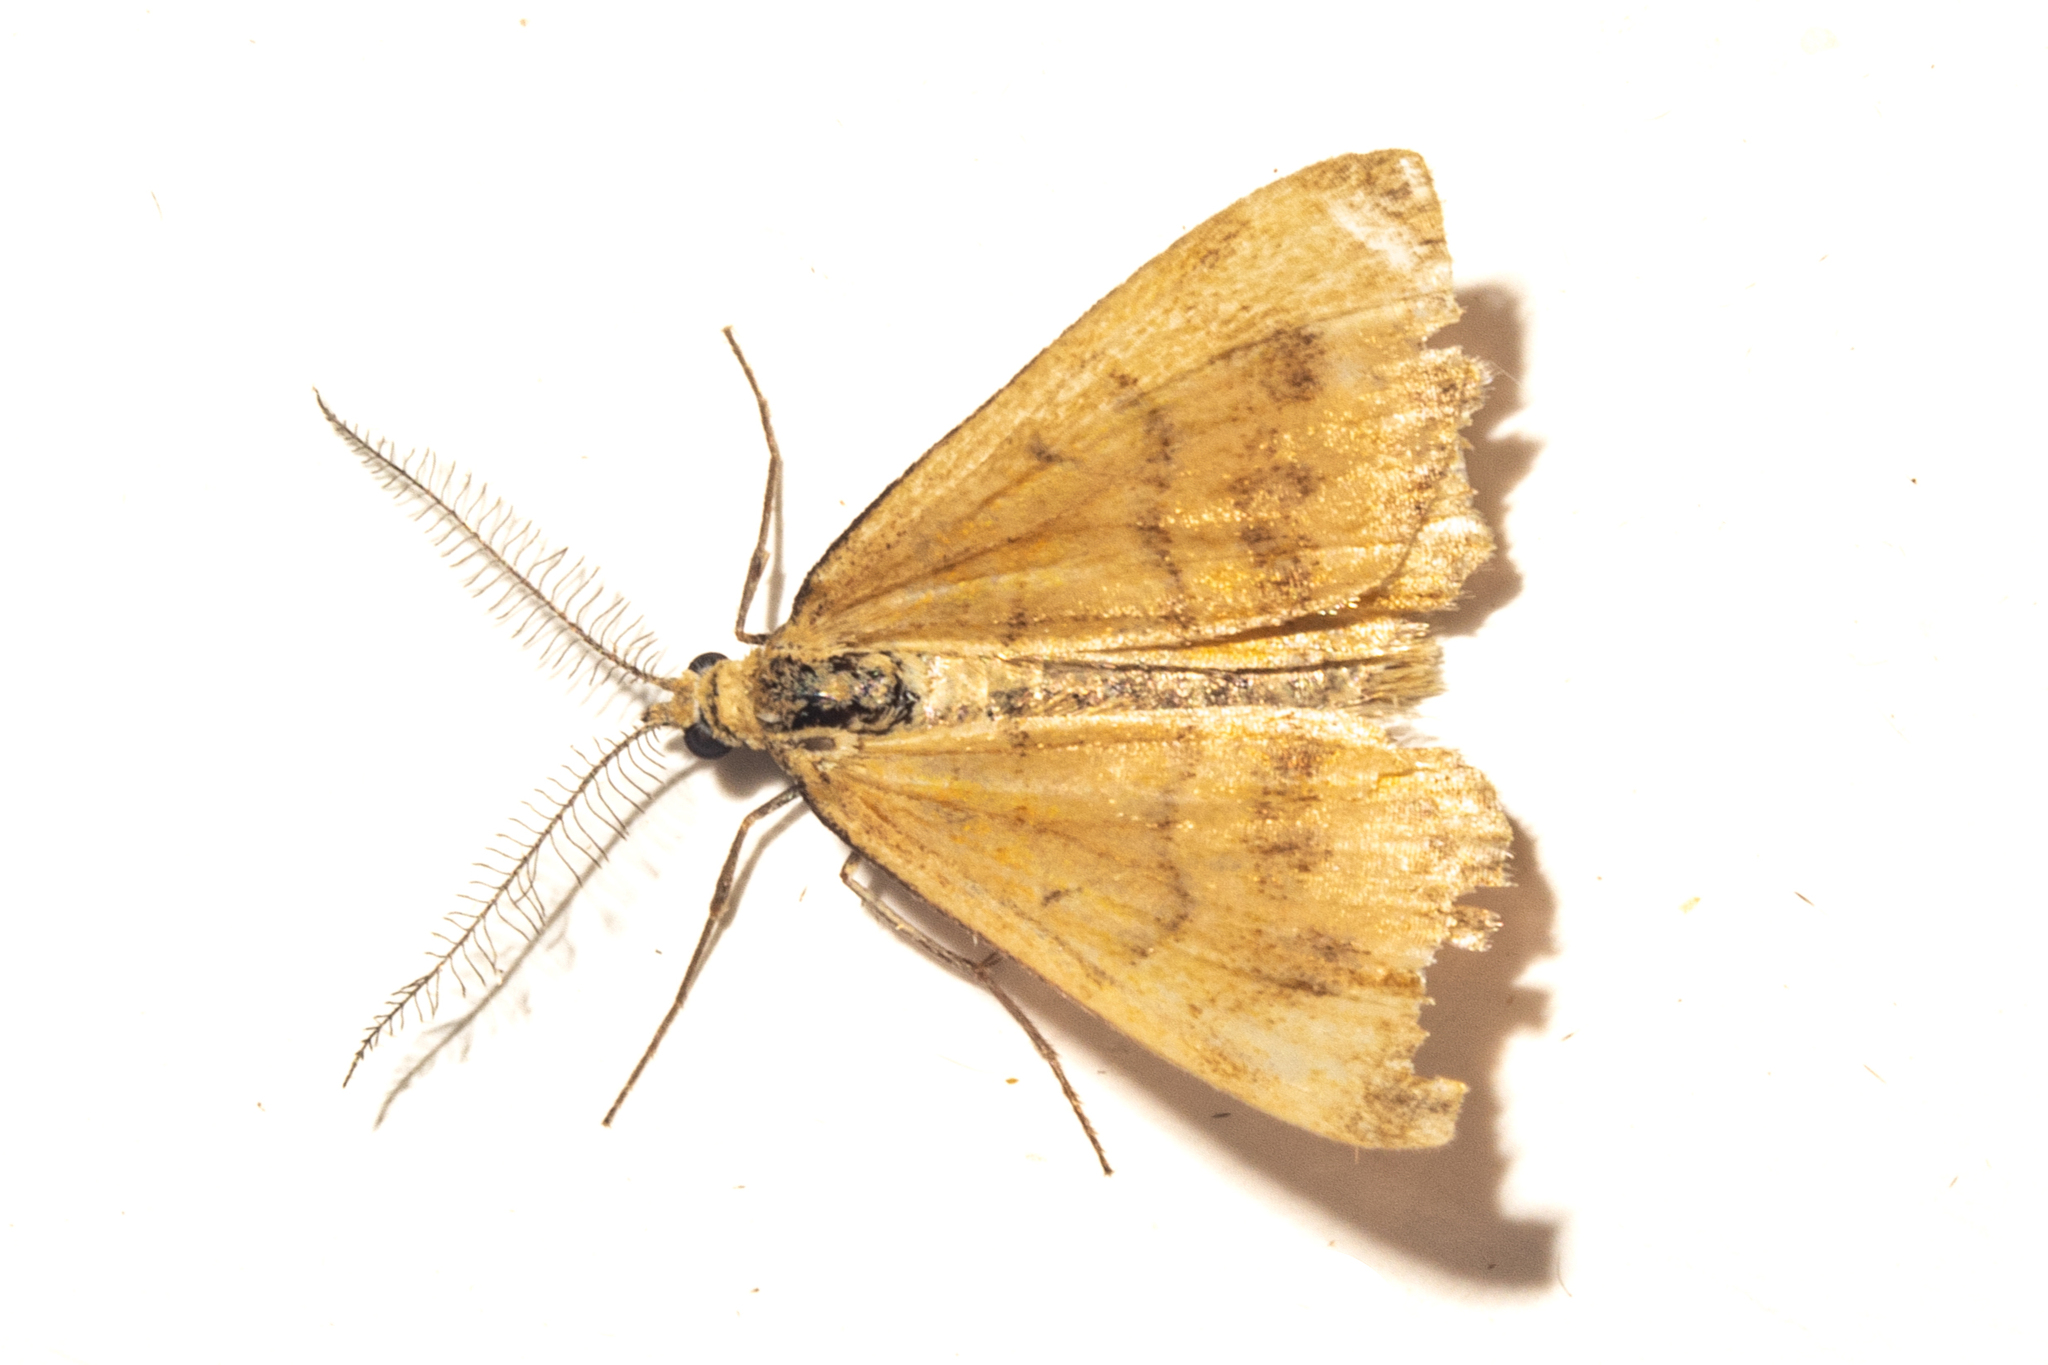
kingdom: Animalia
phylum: Arthropoda
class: Insecta
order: Lepidoptera
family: Geometridae
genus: Asaphodes
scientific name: Asaphodes abrogata
